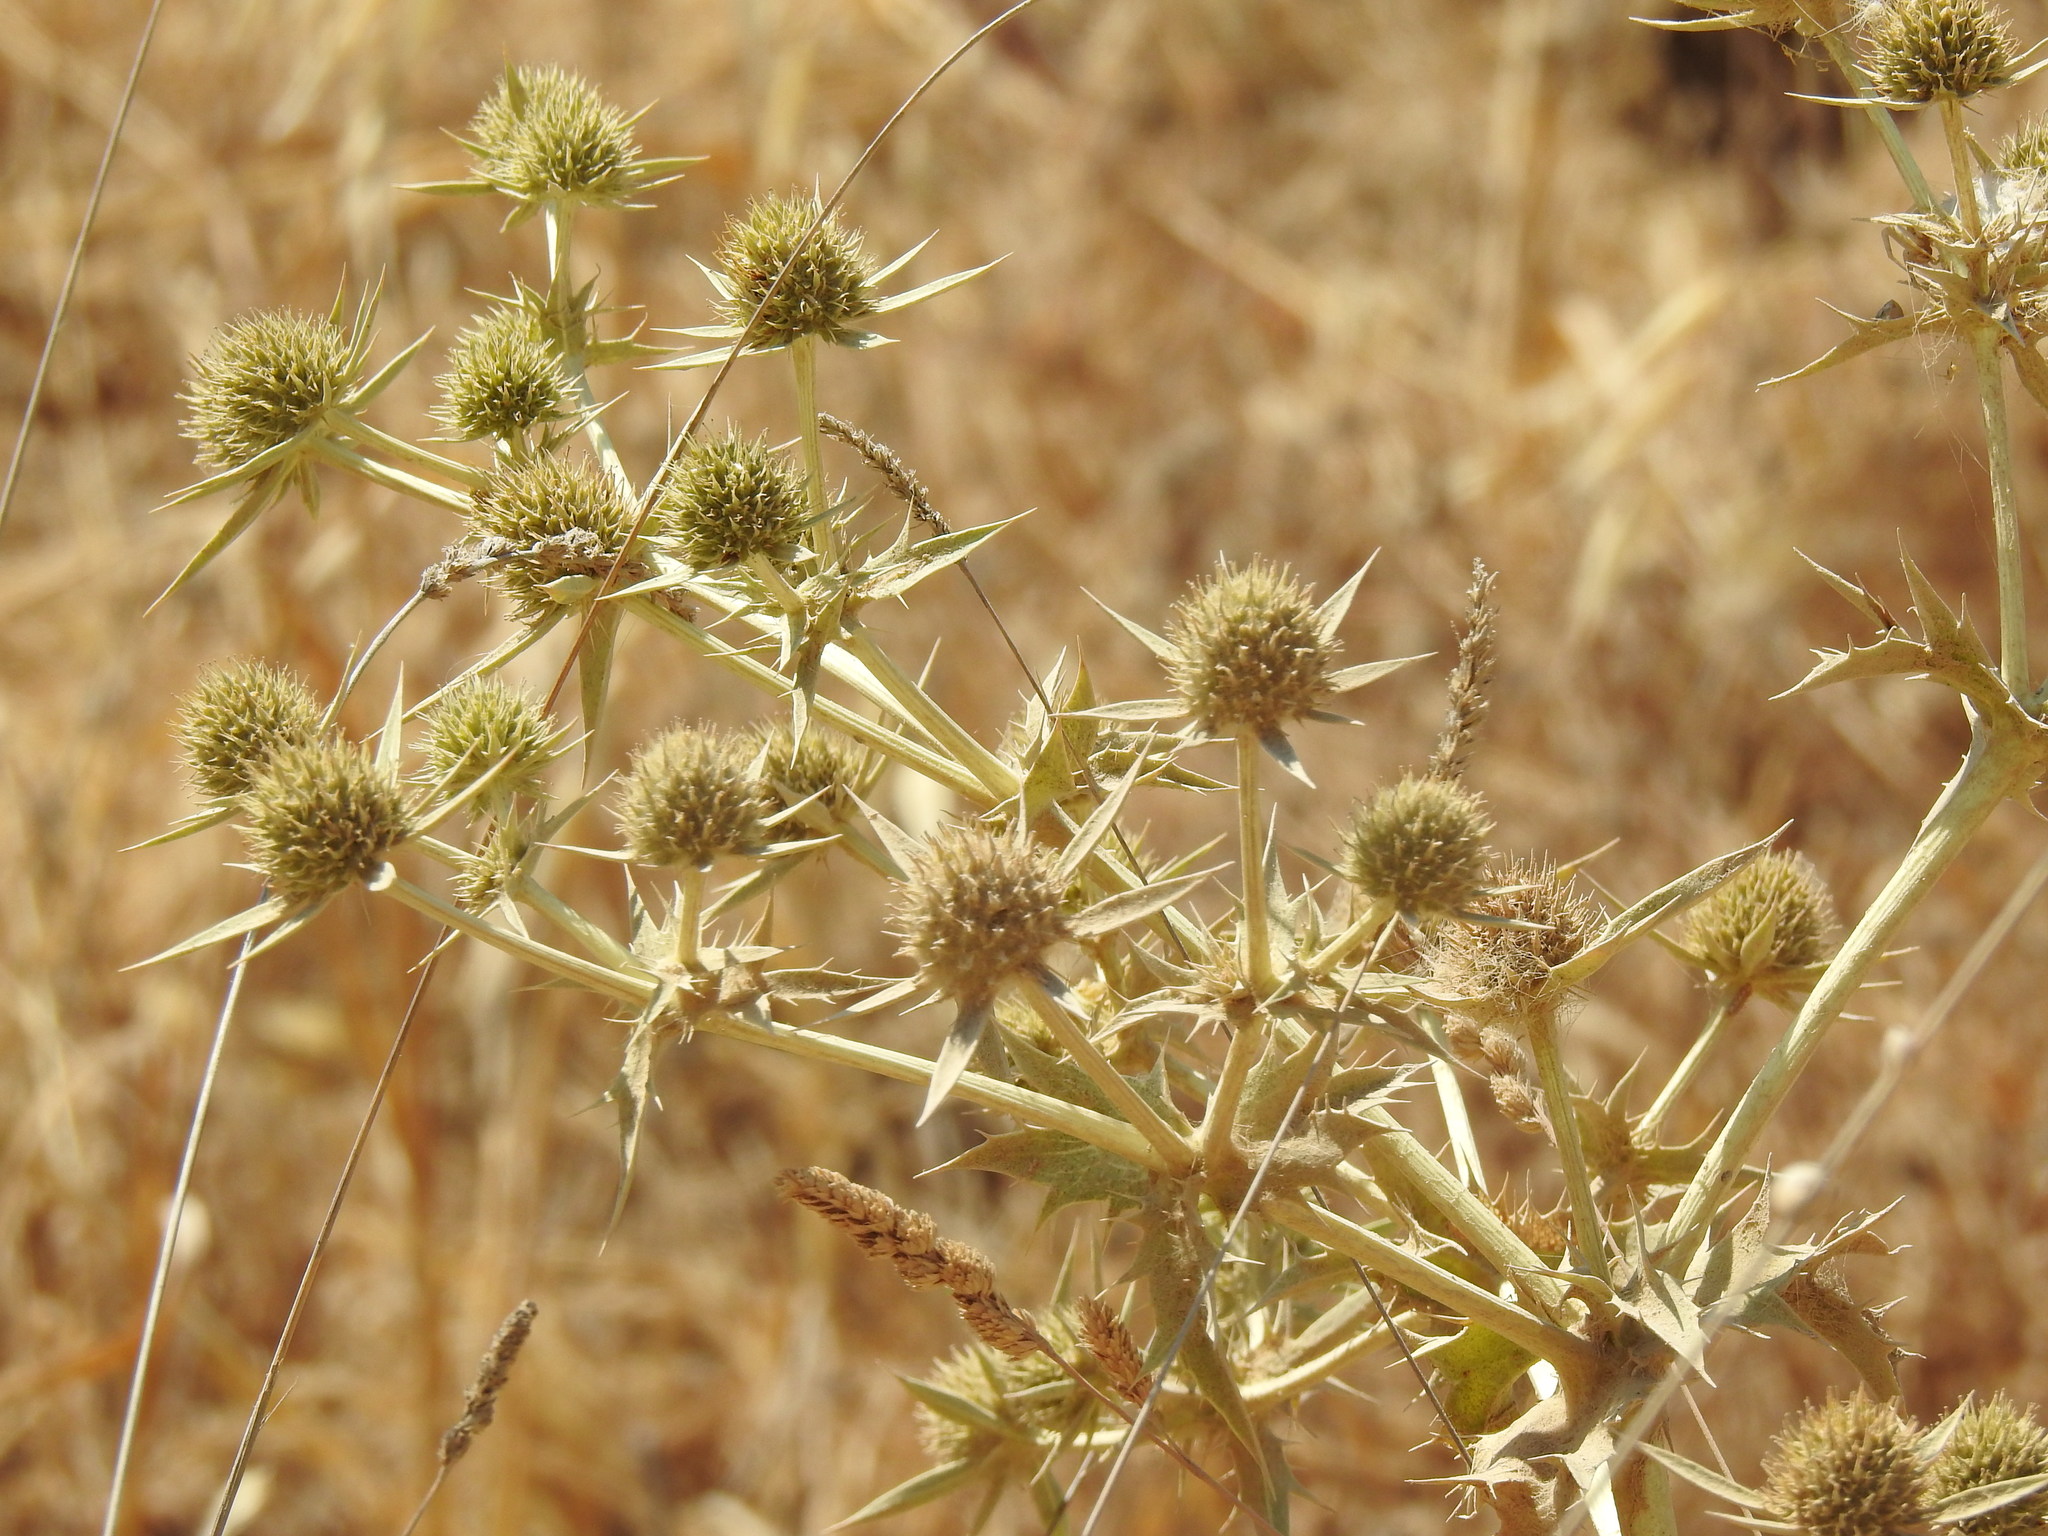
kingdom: Plantae
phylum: Tracheophyta
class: Magnoliopsida
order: Apiales
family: Apiaceae
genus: Eryngium
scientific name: Eryngium campestre
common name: Field eryngo
